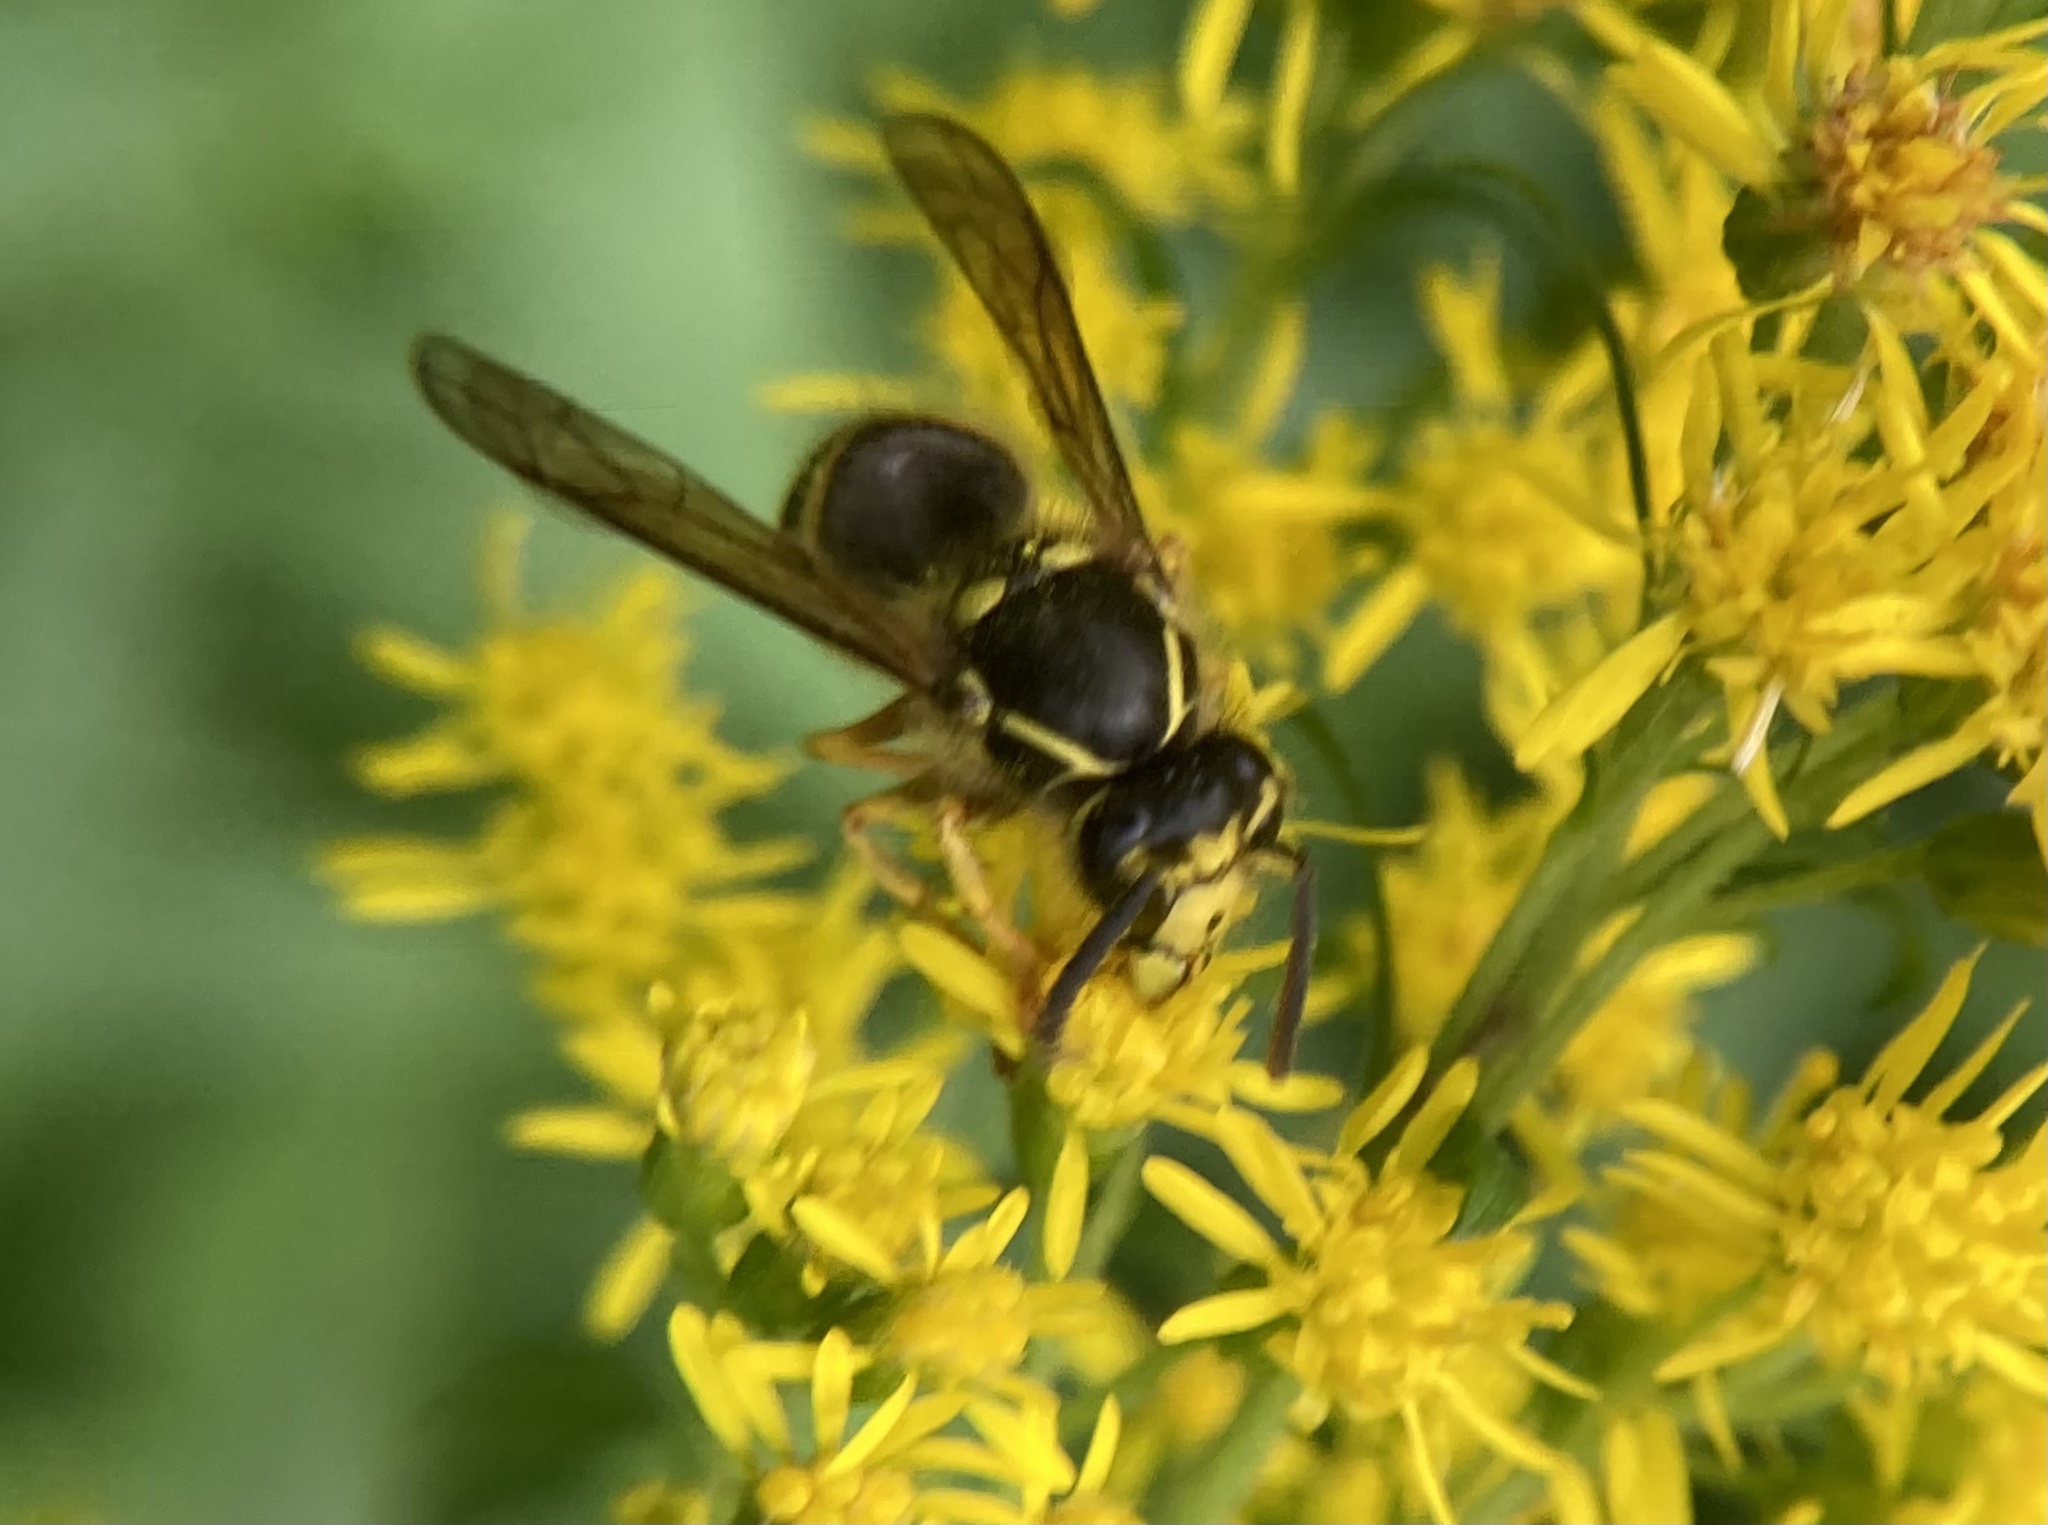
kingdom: Animalia
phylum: Arthropoda
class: Insecta
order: Hymenoptera
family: Vespidae
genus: Dolichovespula
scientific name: Dolichovespula arenaria
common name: Aerial yellowjacket
